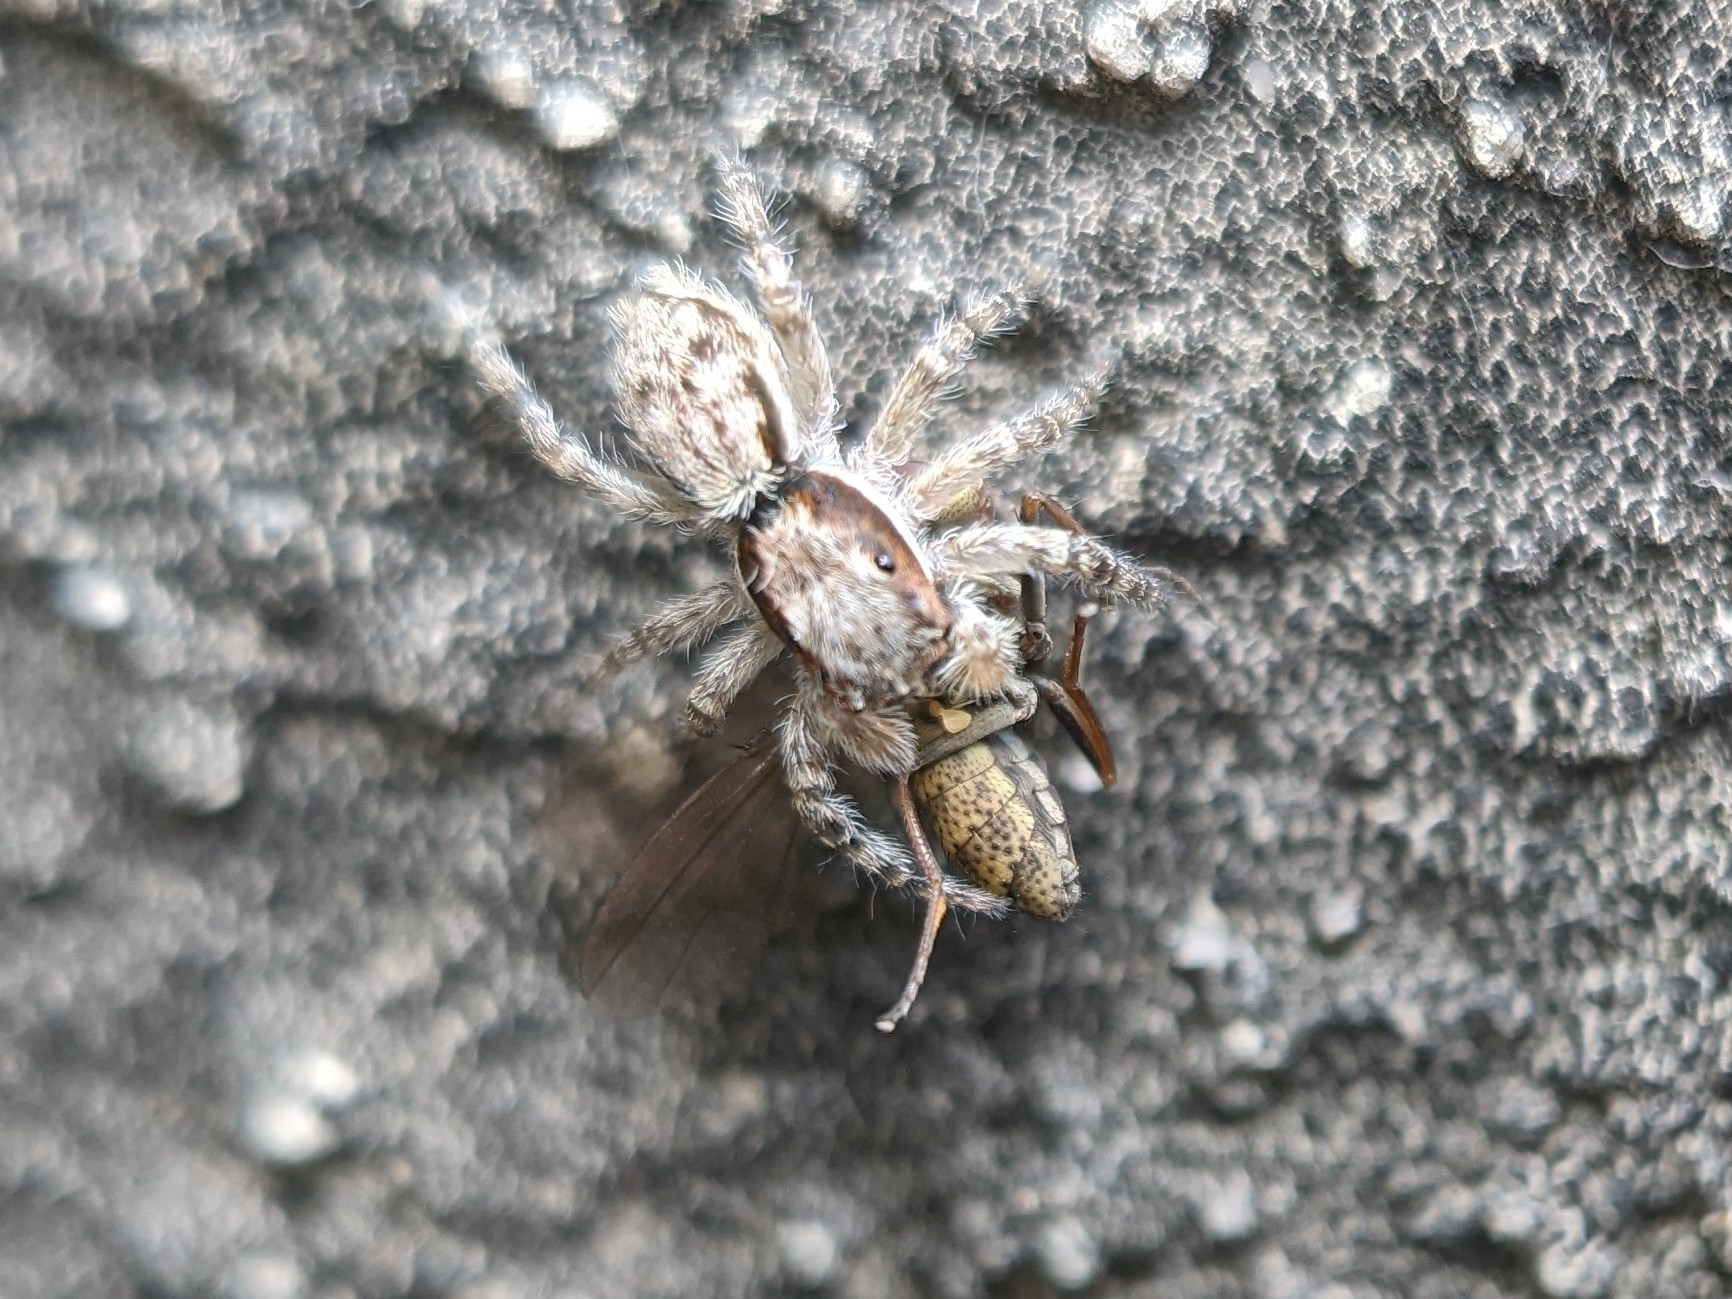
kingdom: Animalia
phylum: Arthropoda
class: Arachnida
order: Araneae
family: Salticidae
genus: Menemerus
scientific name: Menemerus bivittatus
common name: Gray wall jumper
